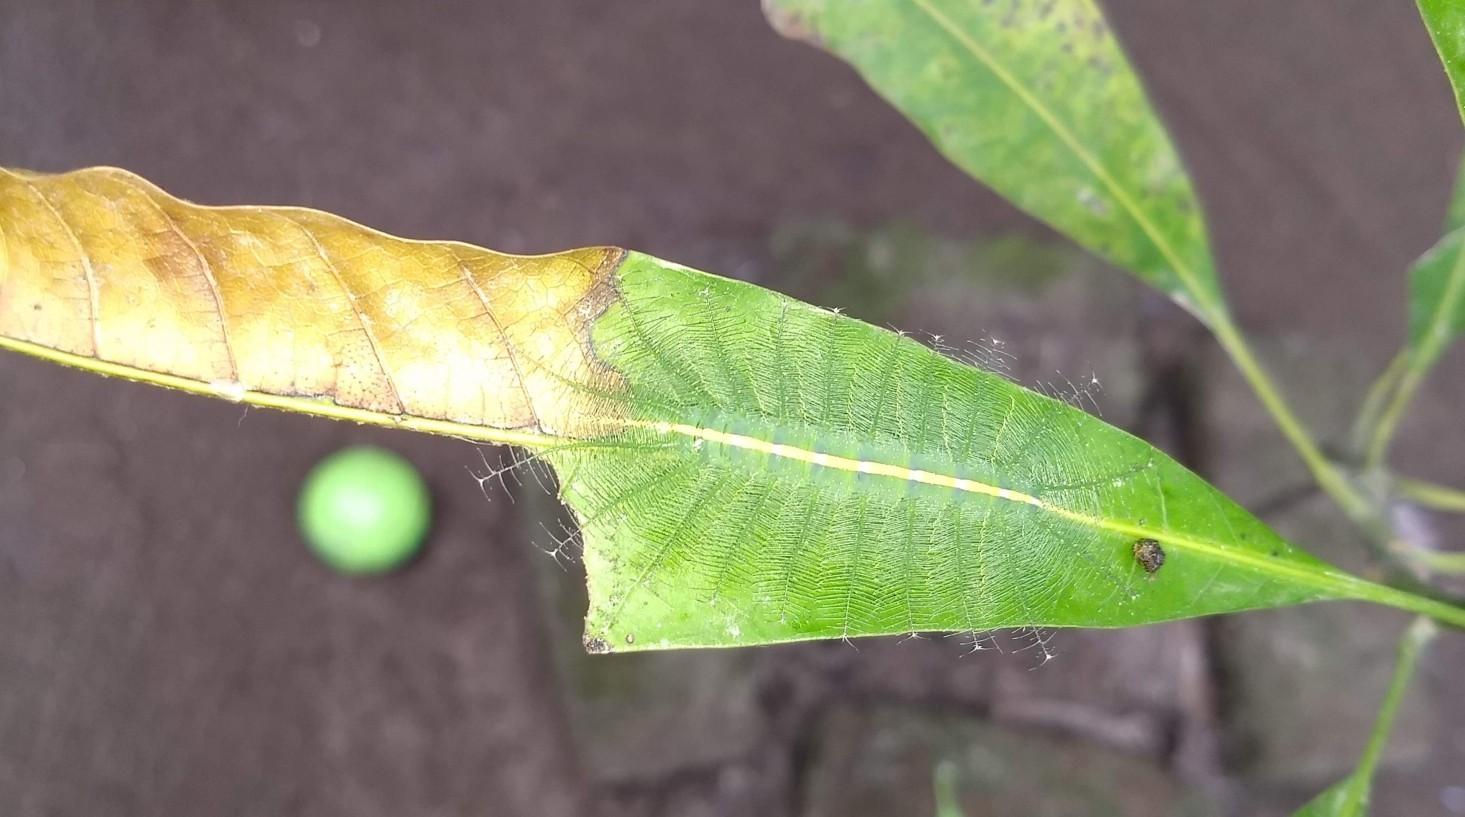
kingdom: Animalia
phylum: Arthropoda
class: Insecta
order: Lepidoptera
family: Nymphalidae
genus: Euthalia
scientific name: Euthalia aconthea
